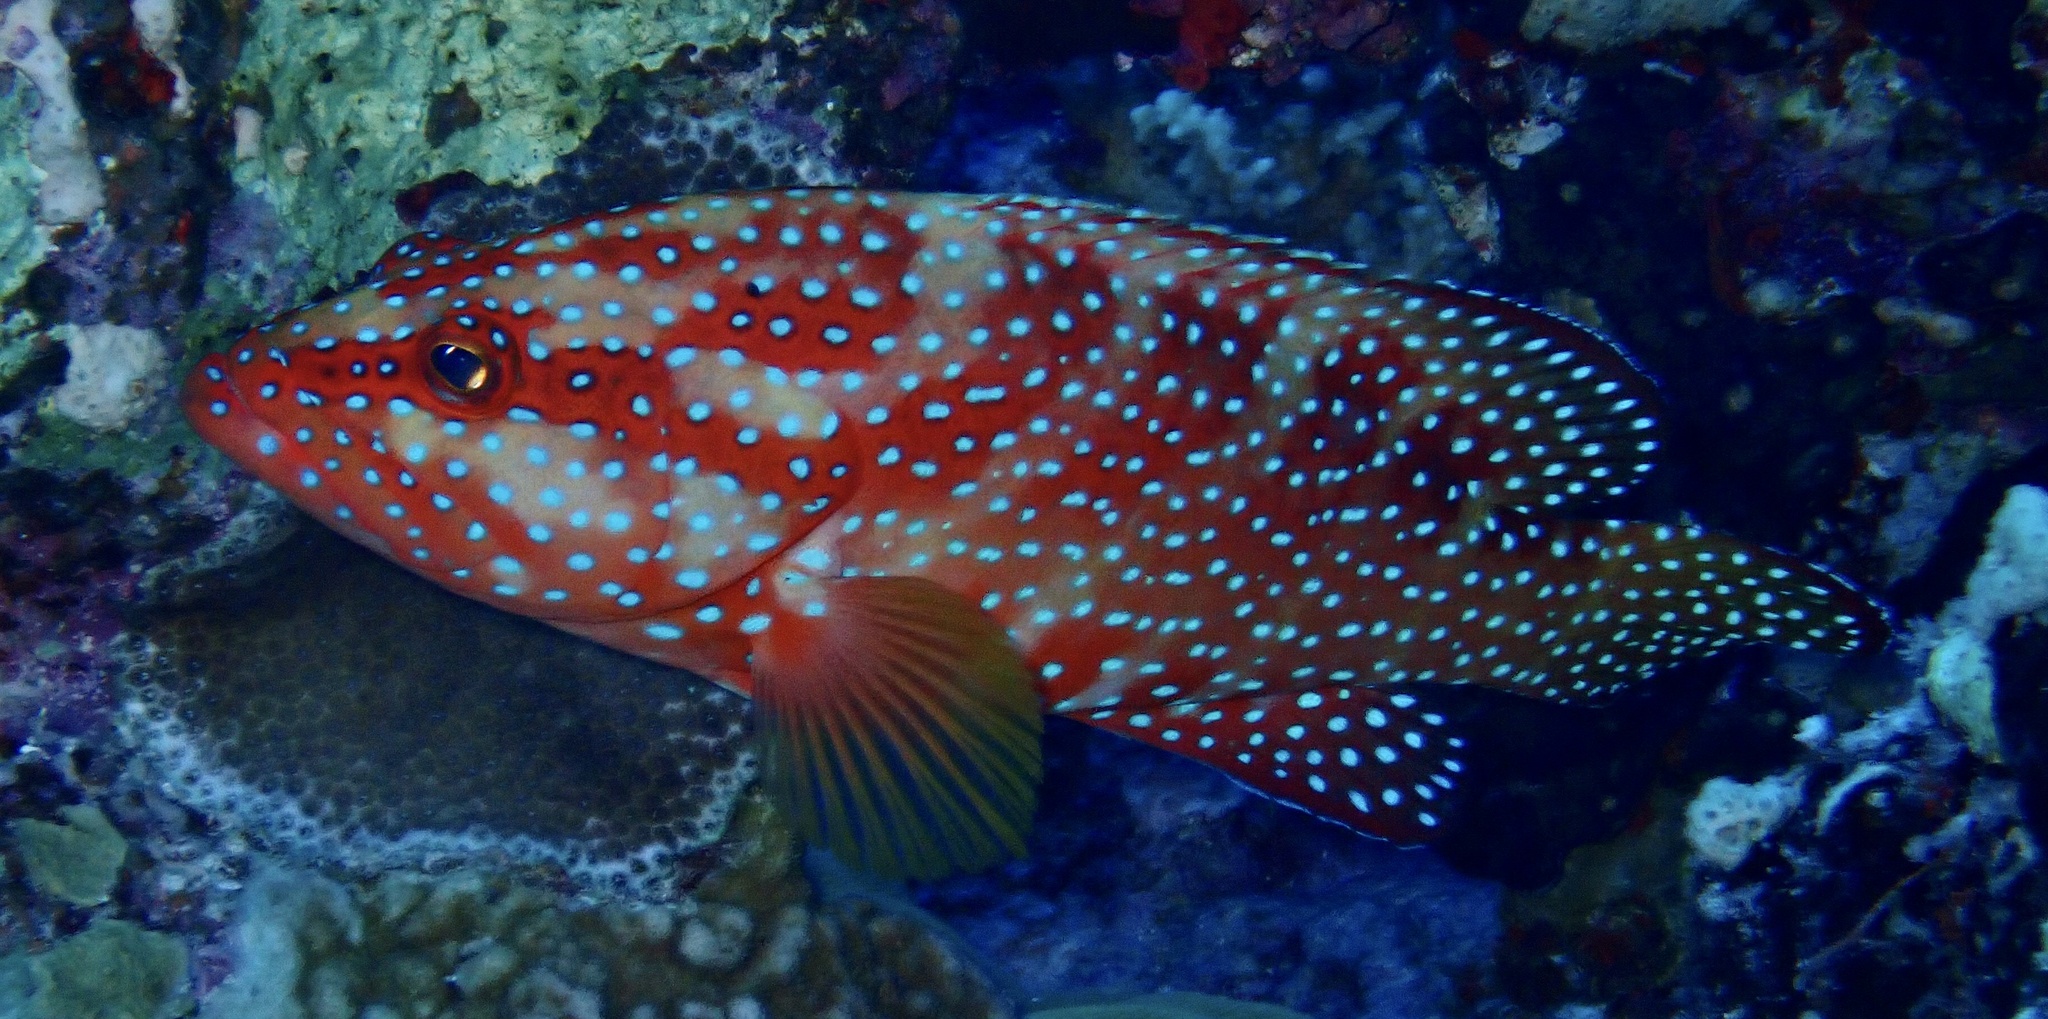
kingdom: Animalia
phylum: Chordata
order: Perciformes
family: Serranidae
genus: Cephalopholis
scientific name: Cephalopholis miniata
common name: Coral hind
